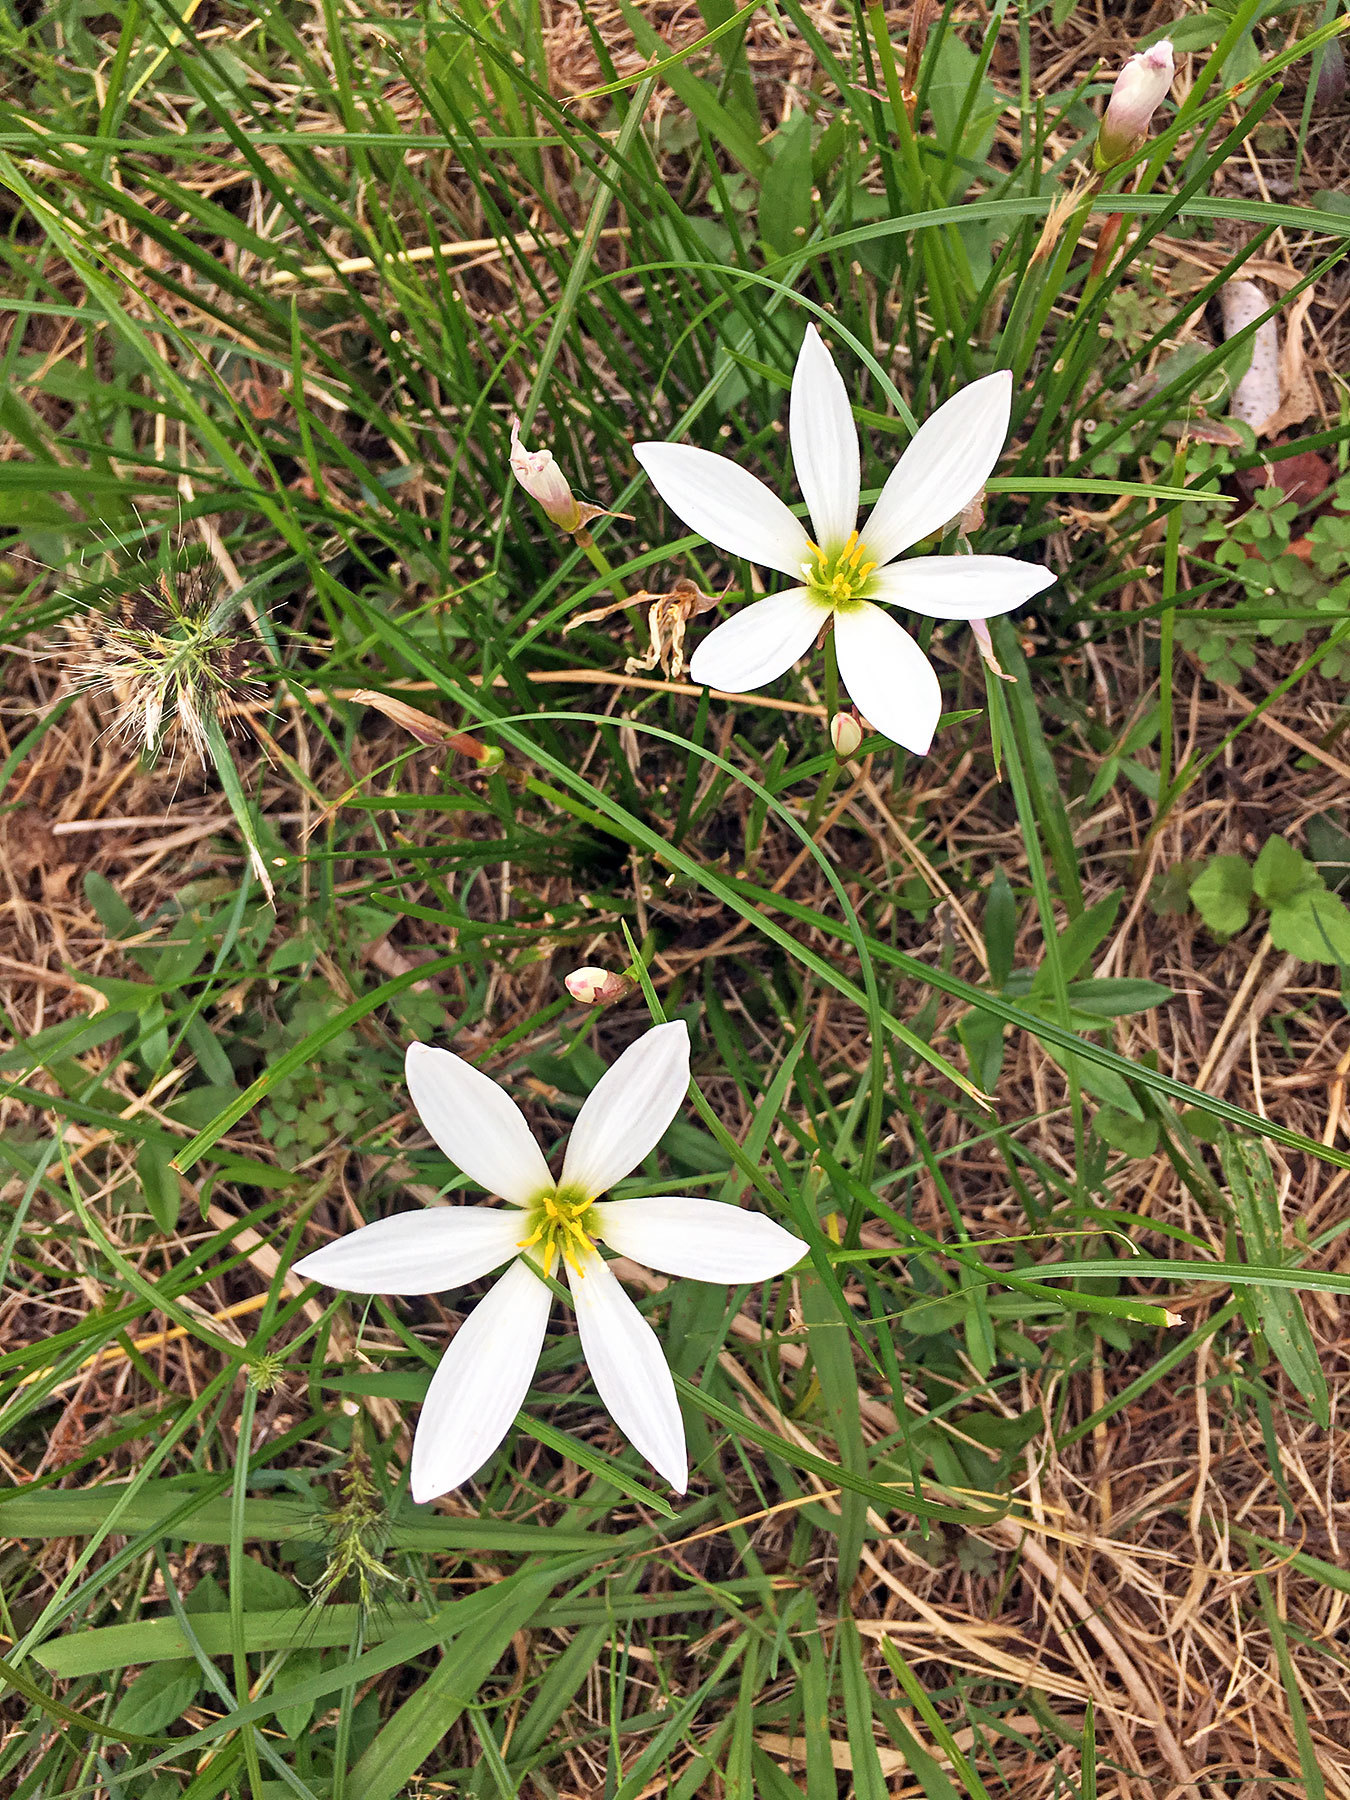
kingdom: Plantae
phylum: Tracheophyta
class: Liliopsida
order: Asparagales
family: Amaryllidaceae
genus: Zephyranthes
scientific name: Zephyranthes candida
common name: Autumn zephyrlily
